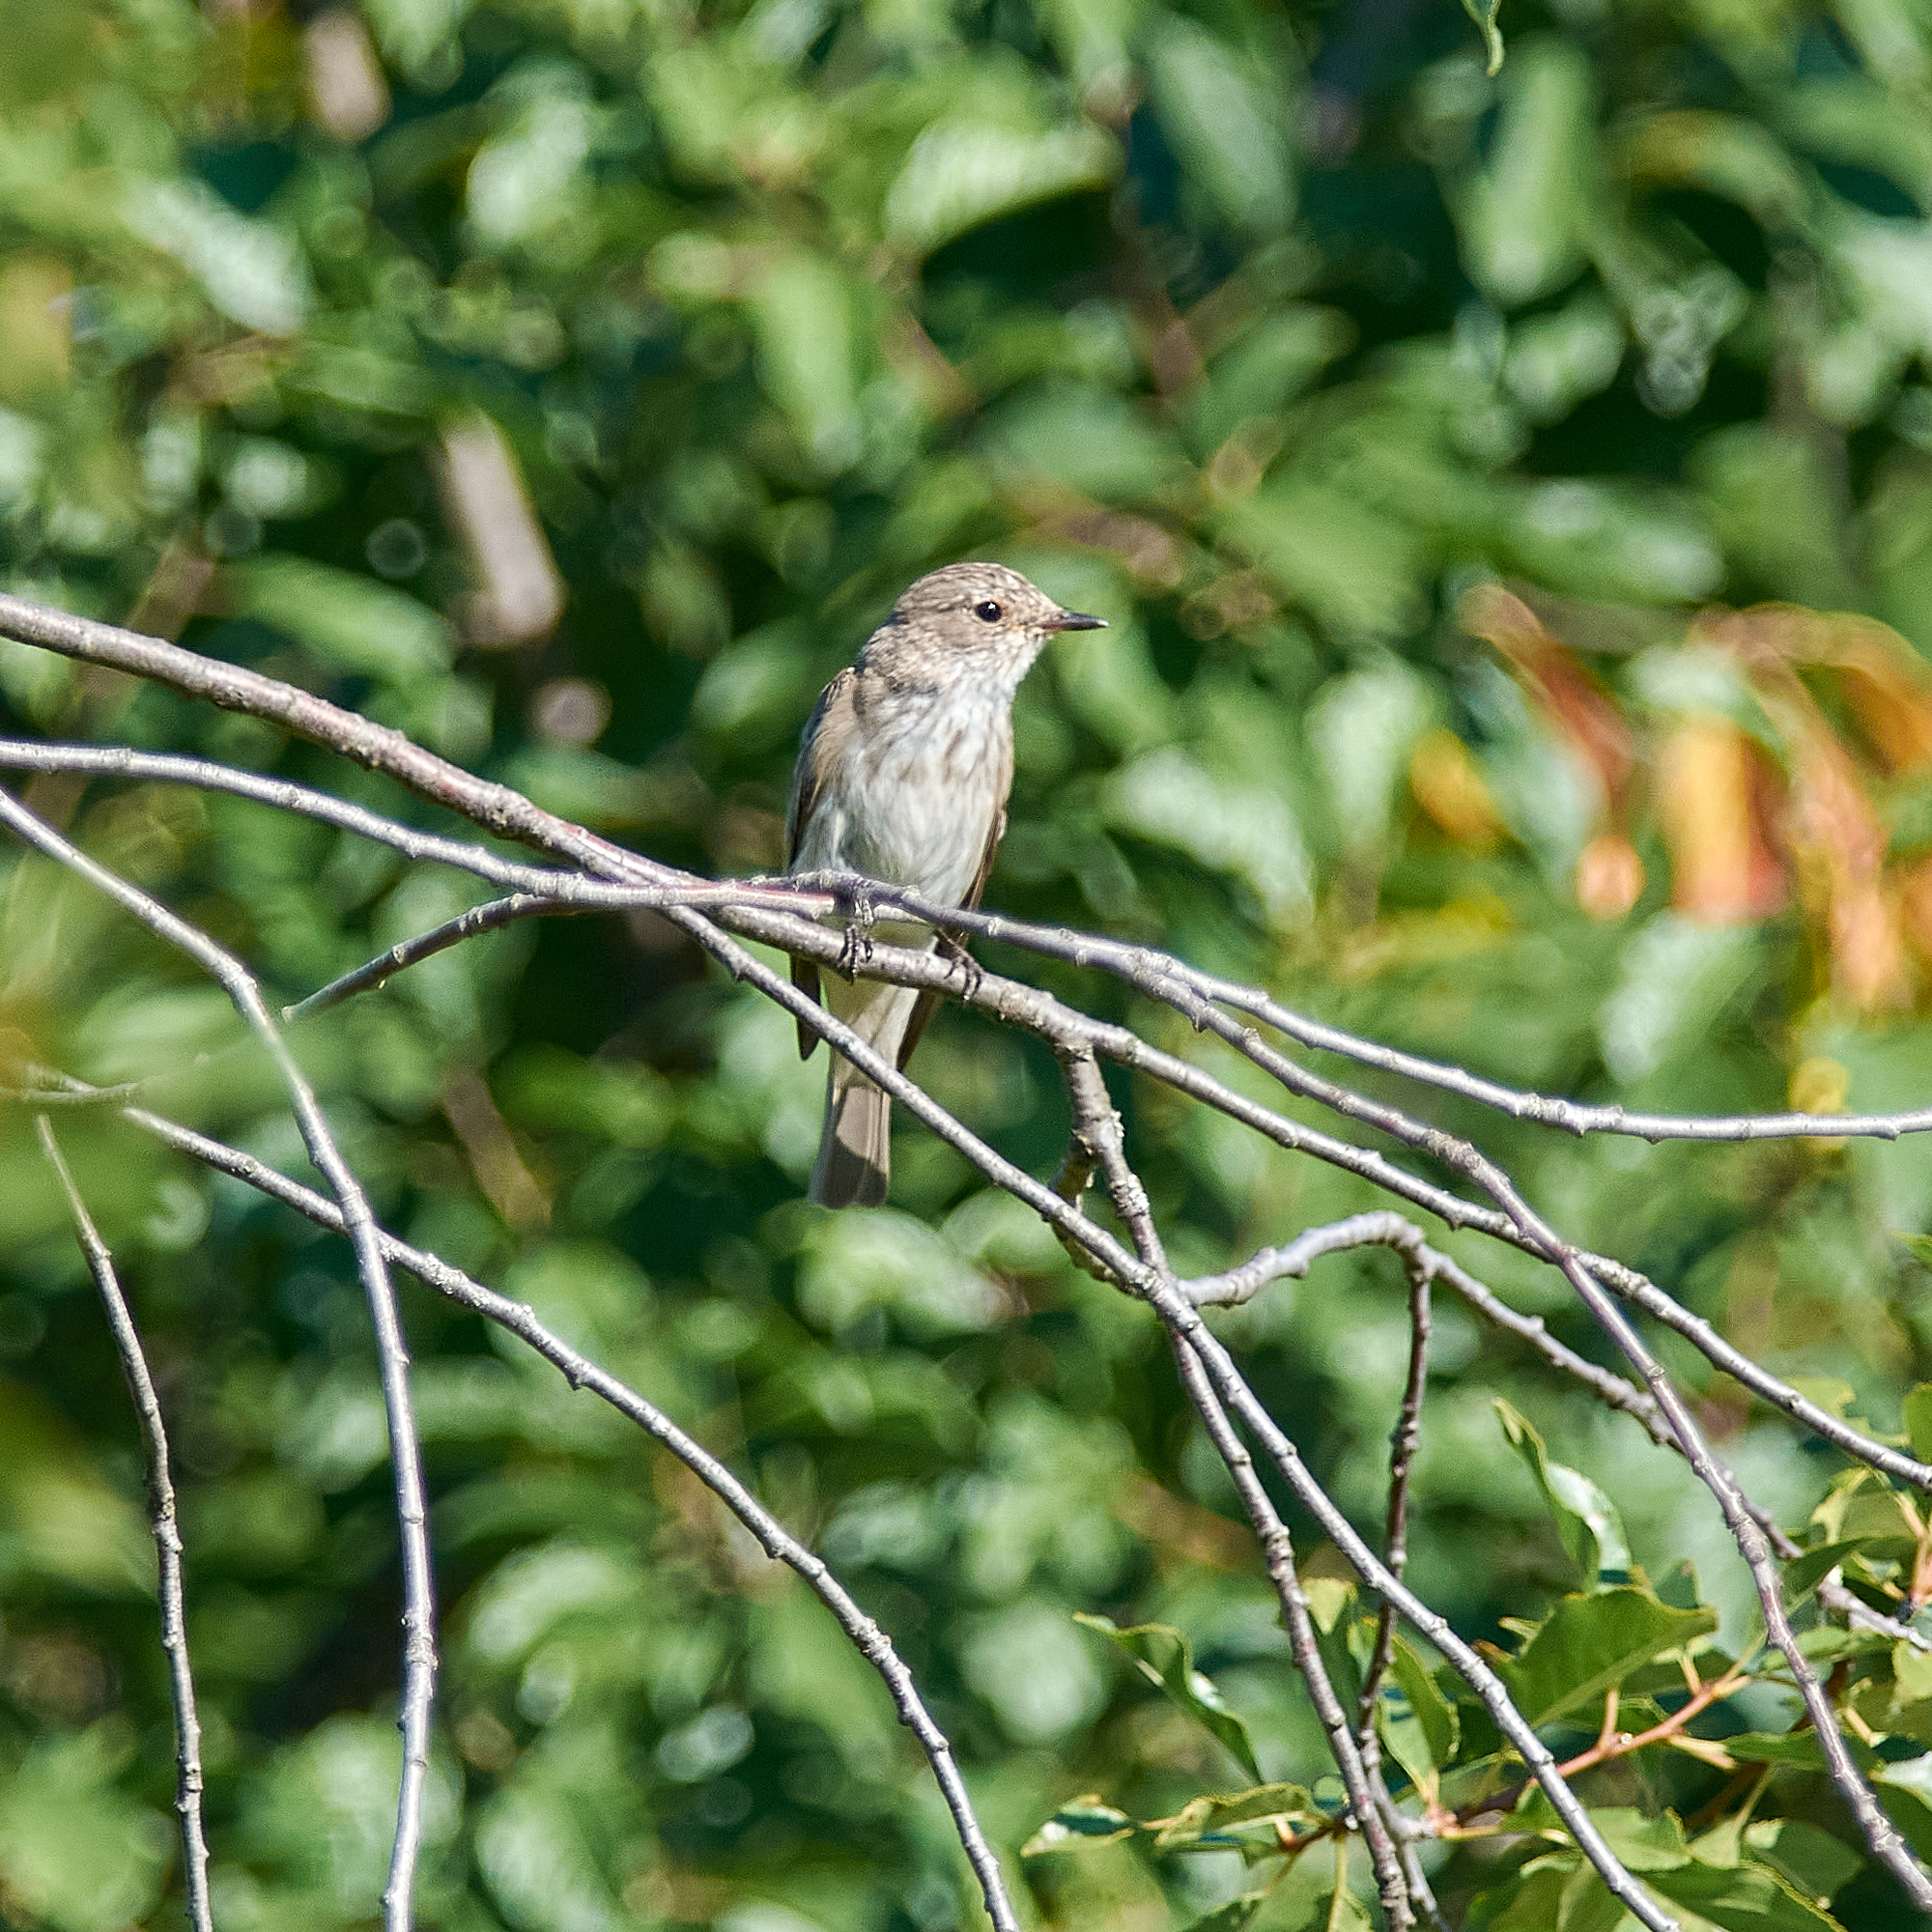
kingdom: Animalia
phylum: Chordata
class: Aves
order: Passeriformes
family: Muscicapidae
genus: Muscicapa
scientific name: Muscicapa striata
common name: Spotted flycatcher
